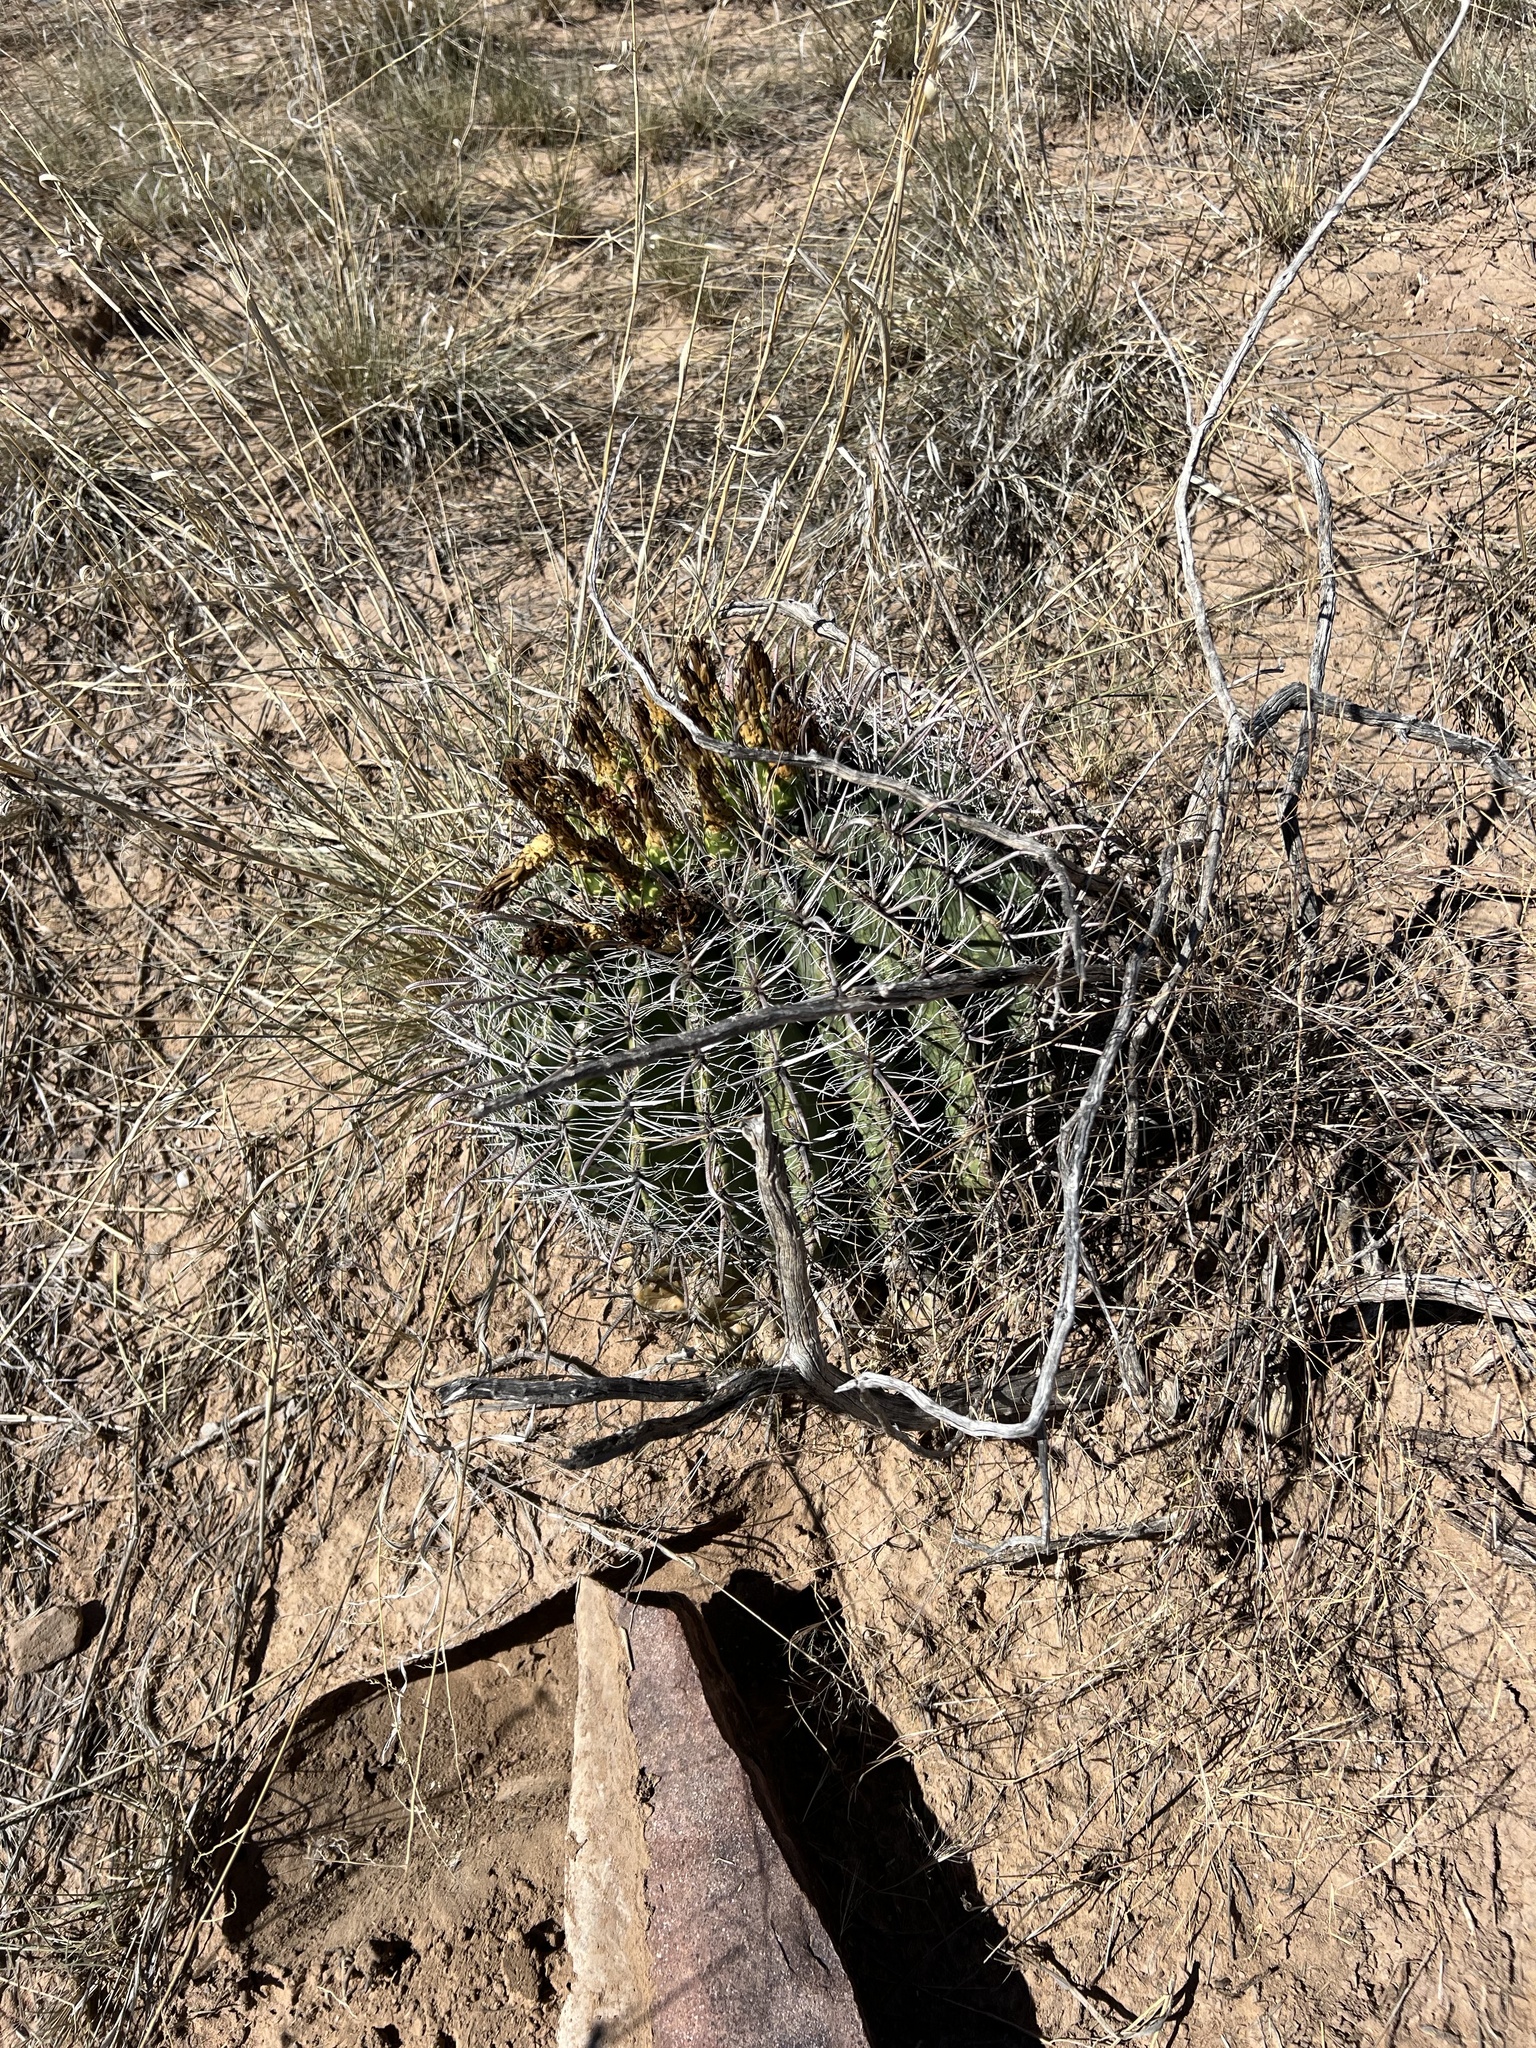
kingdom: Plantae
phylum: Tracheophyta
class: Magnoliopsida
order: Caryophyllales
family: Cactaceae
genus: Ferocactus
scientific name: Ferocactus wislizeni
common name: Candy barrel cactus
